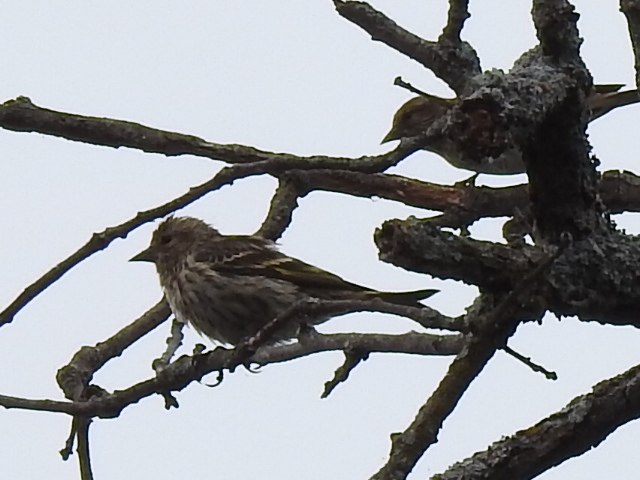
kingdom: Animalia
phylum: Chordata
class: Aves
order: Passeriformes
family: Fringillidae
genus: Spinus
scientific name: Spinus pinus
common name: Pine siskin
